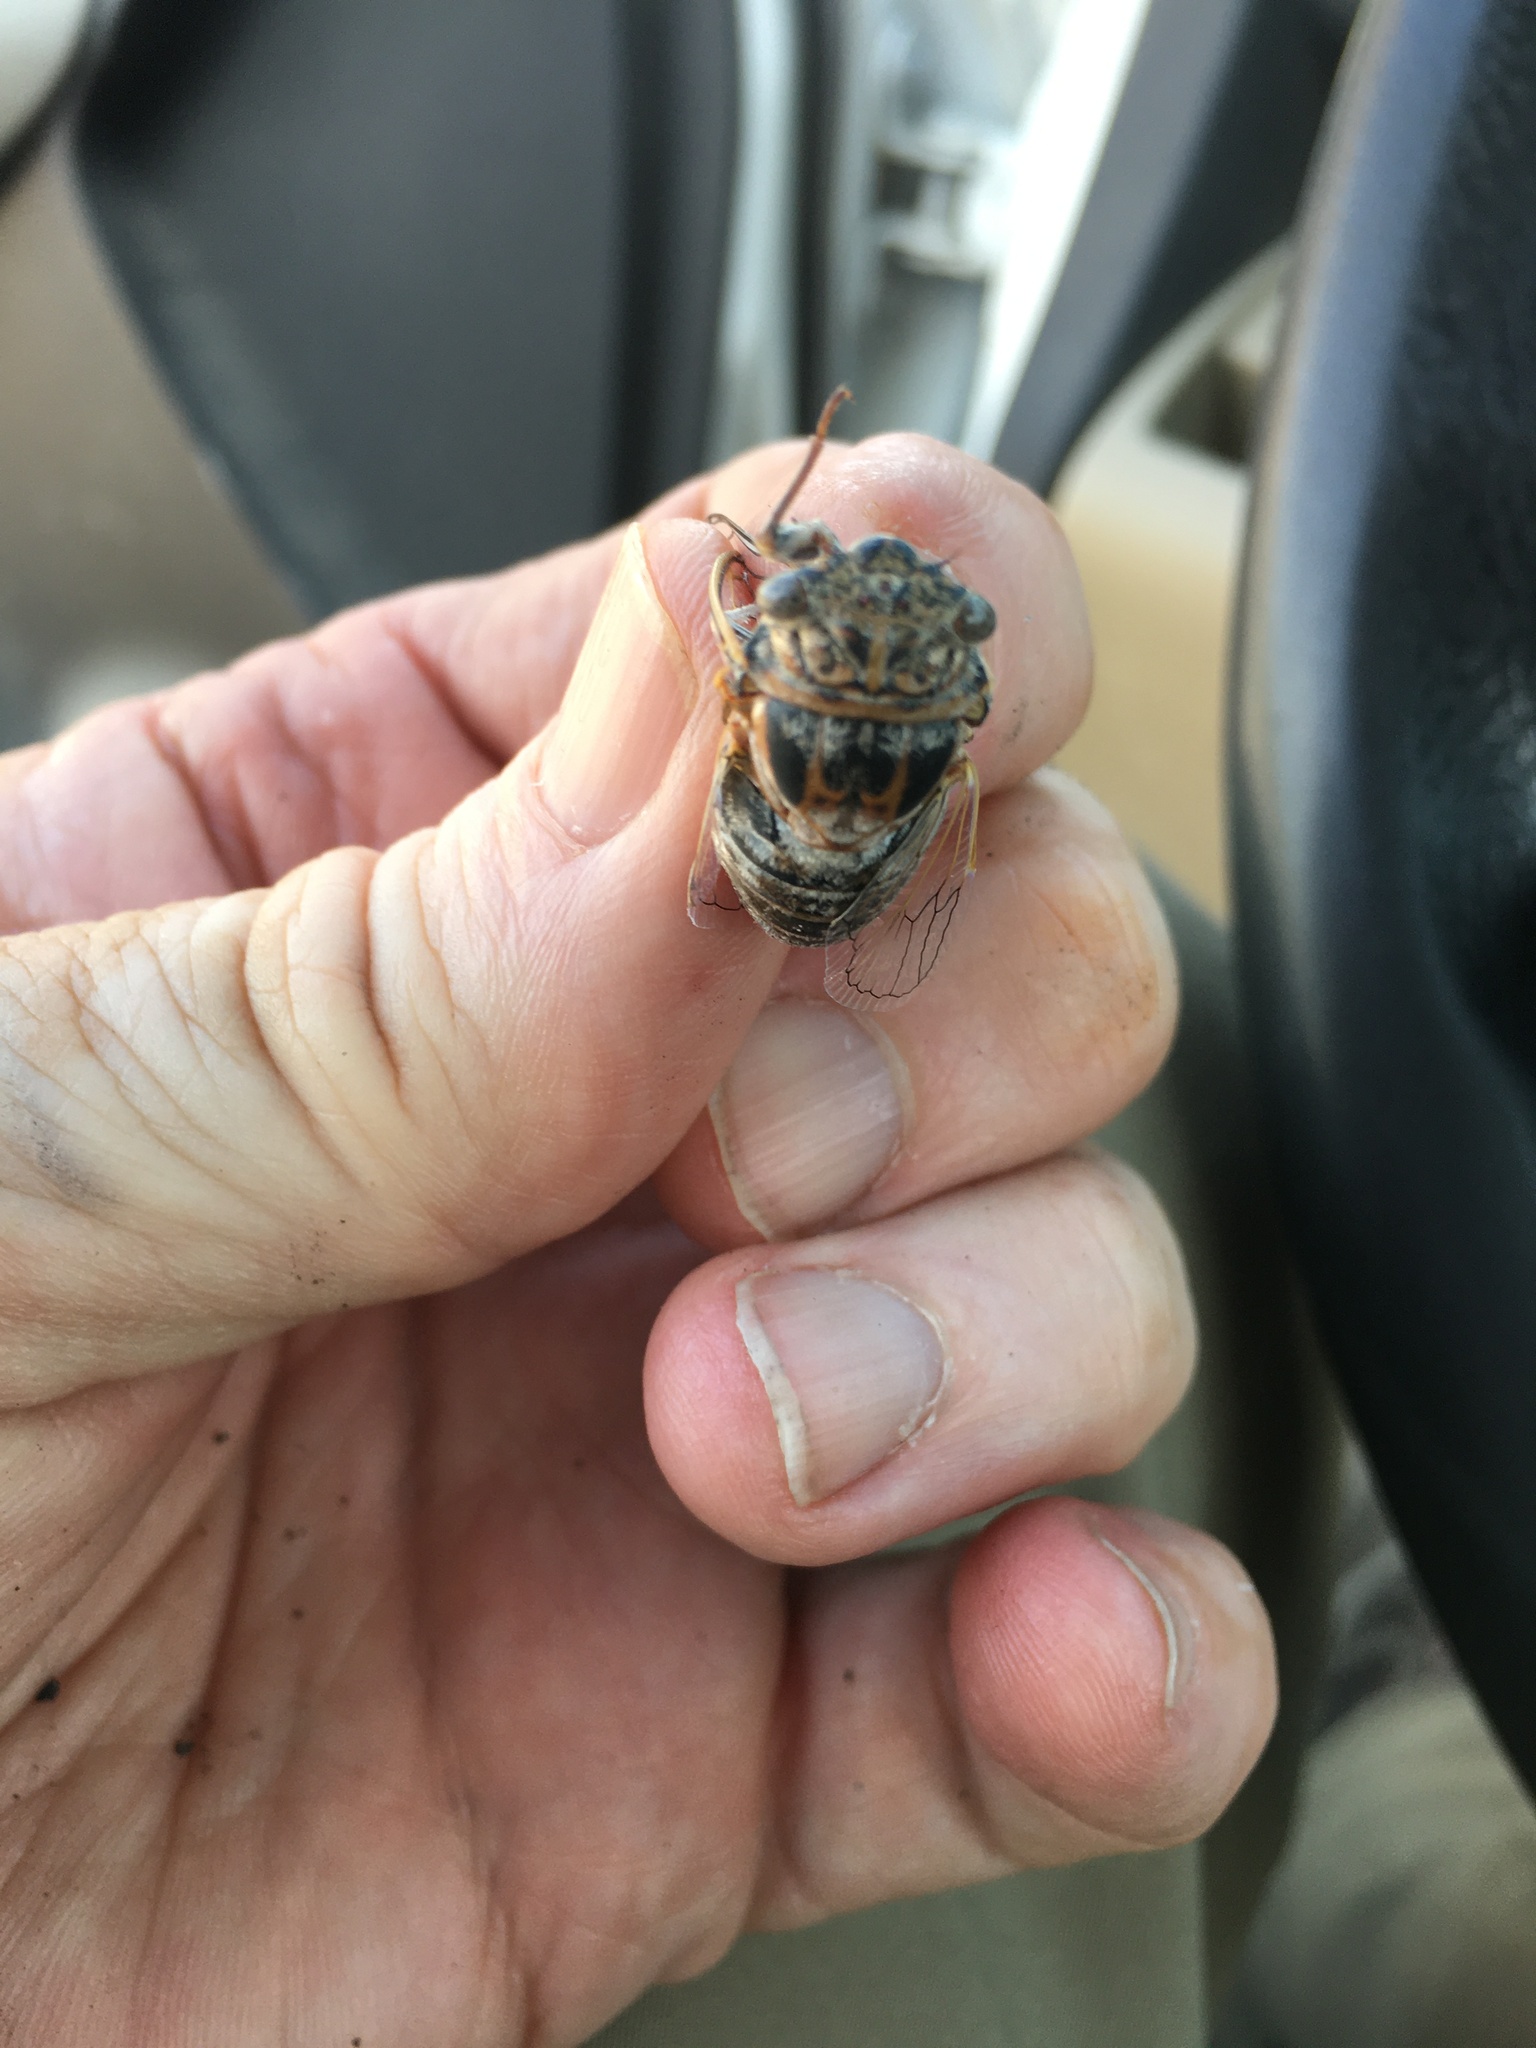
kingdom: Animalia
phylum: Arthropoda
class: Insecta
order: Hemiptera
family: Cicadidae
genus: Diceroprocta
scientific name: Diceroprocta eugraphica
